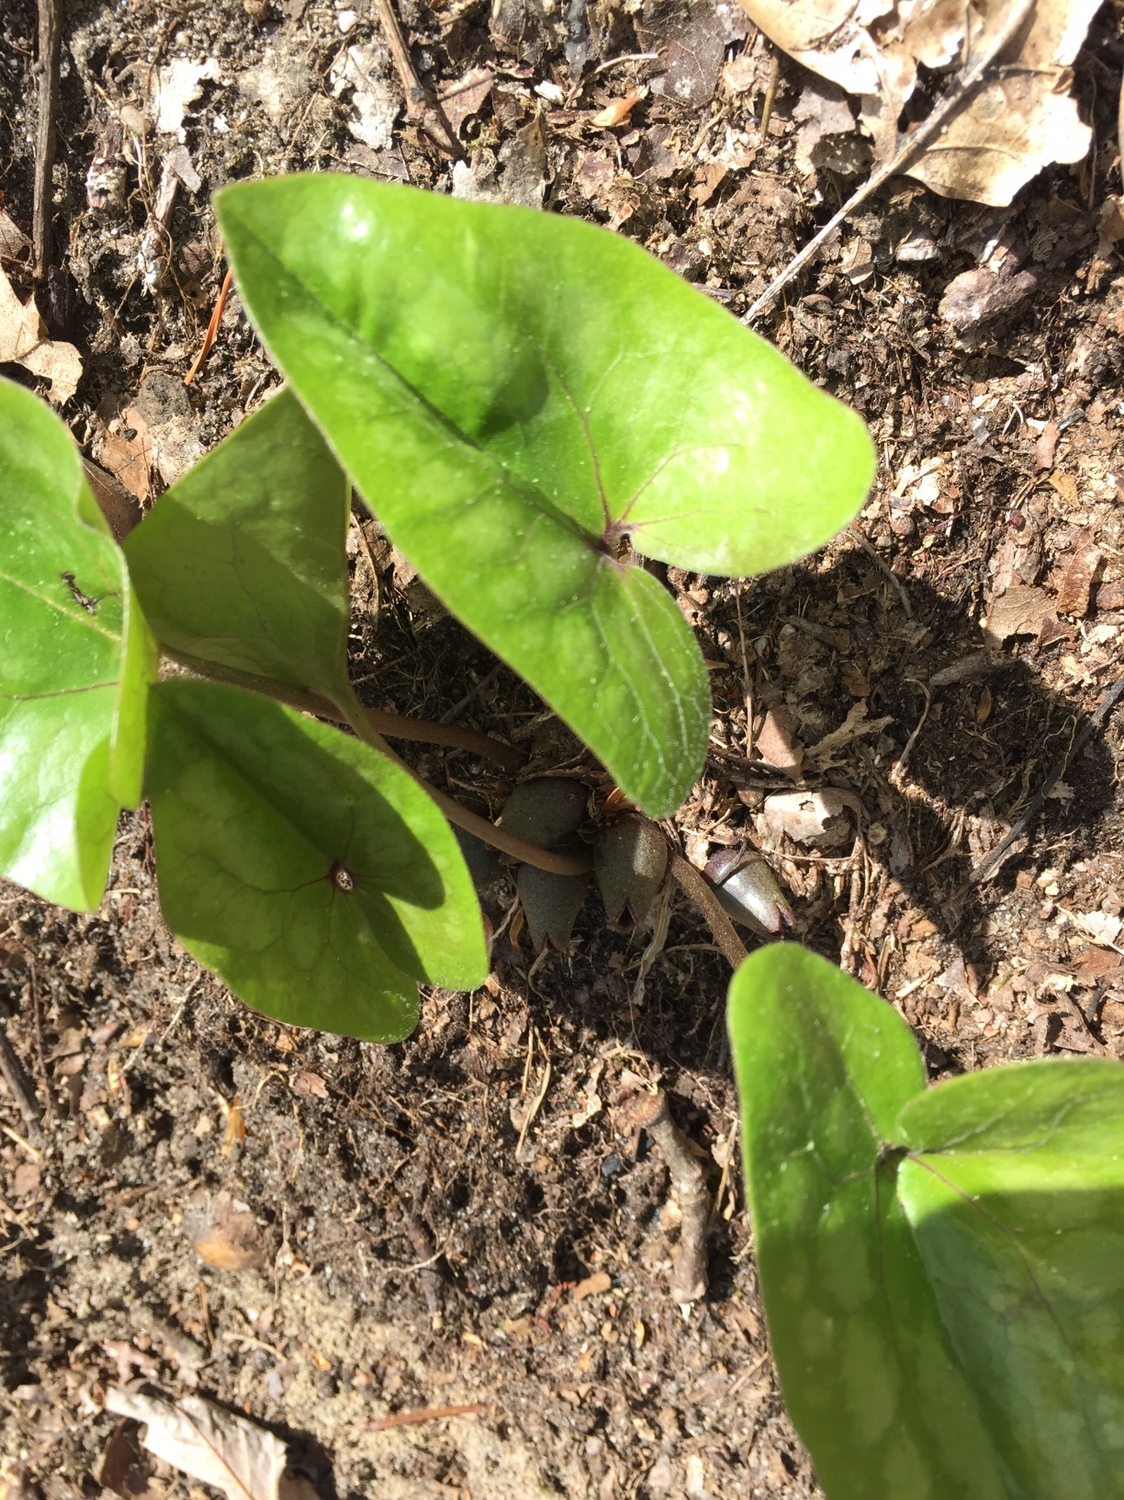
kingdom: Plantae
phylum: Tracheophyta
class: Magnoliopsida
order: Piperales
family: Aristolochiaceae
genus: Hexastylis
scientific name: Hexastylis arifolia
